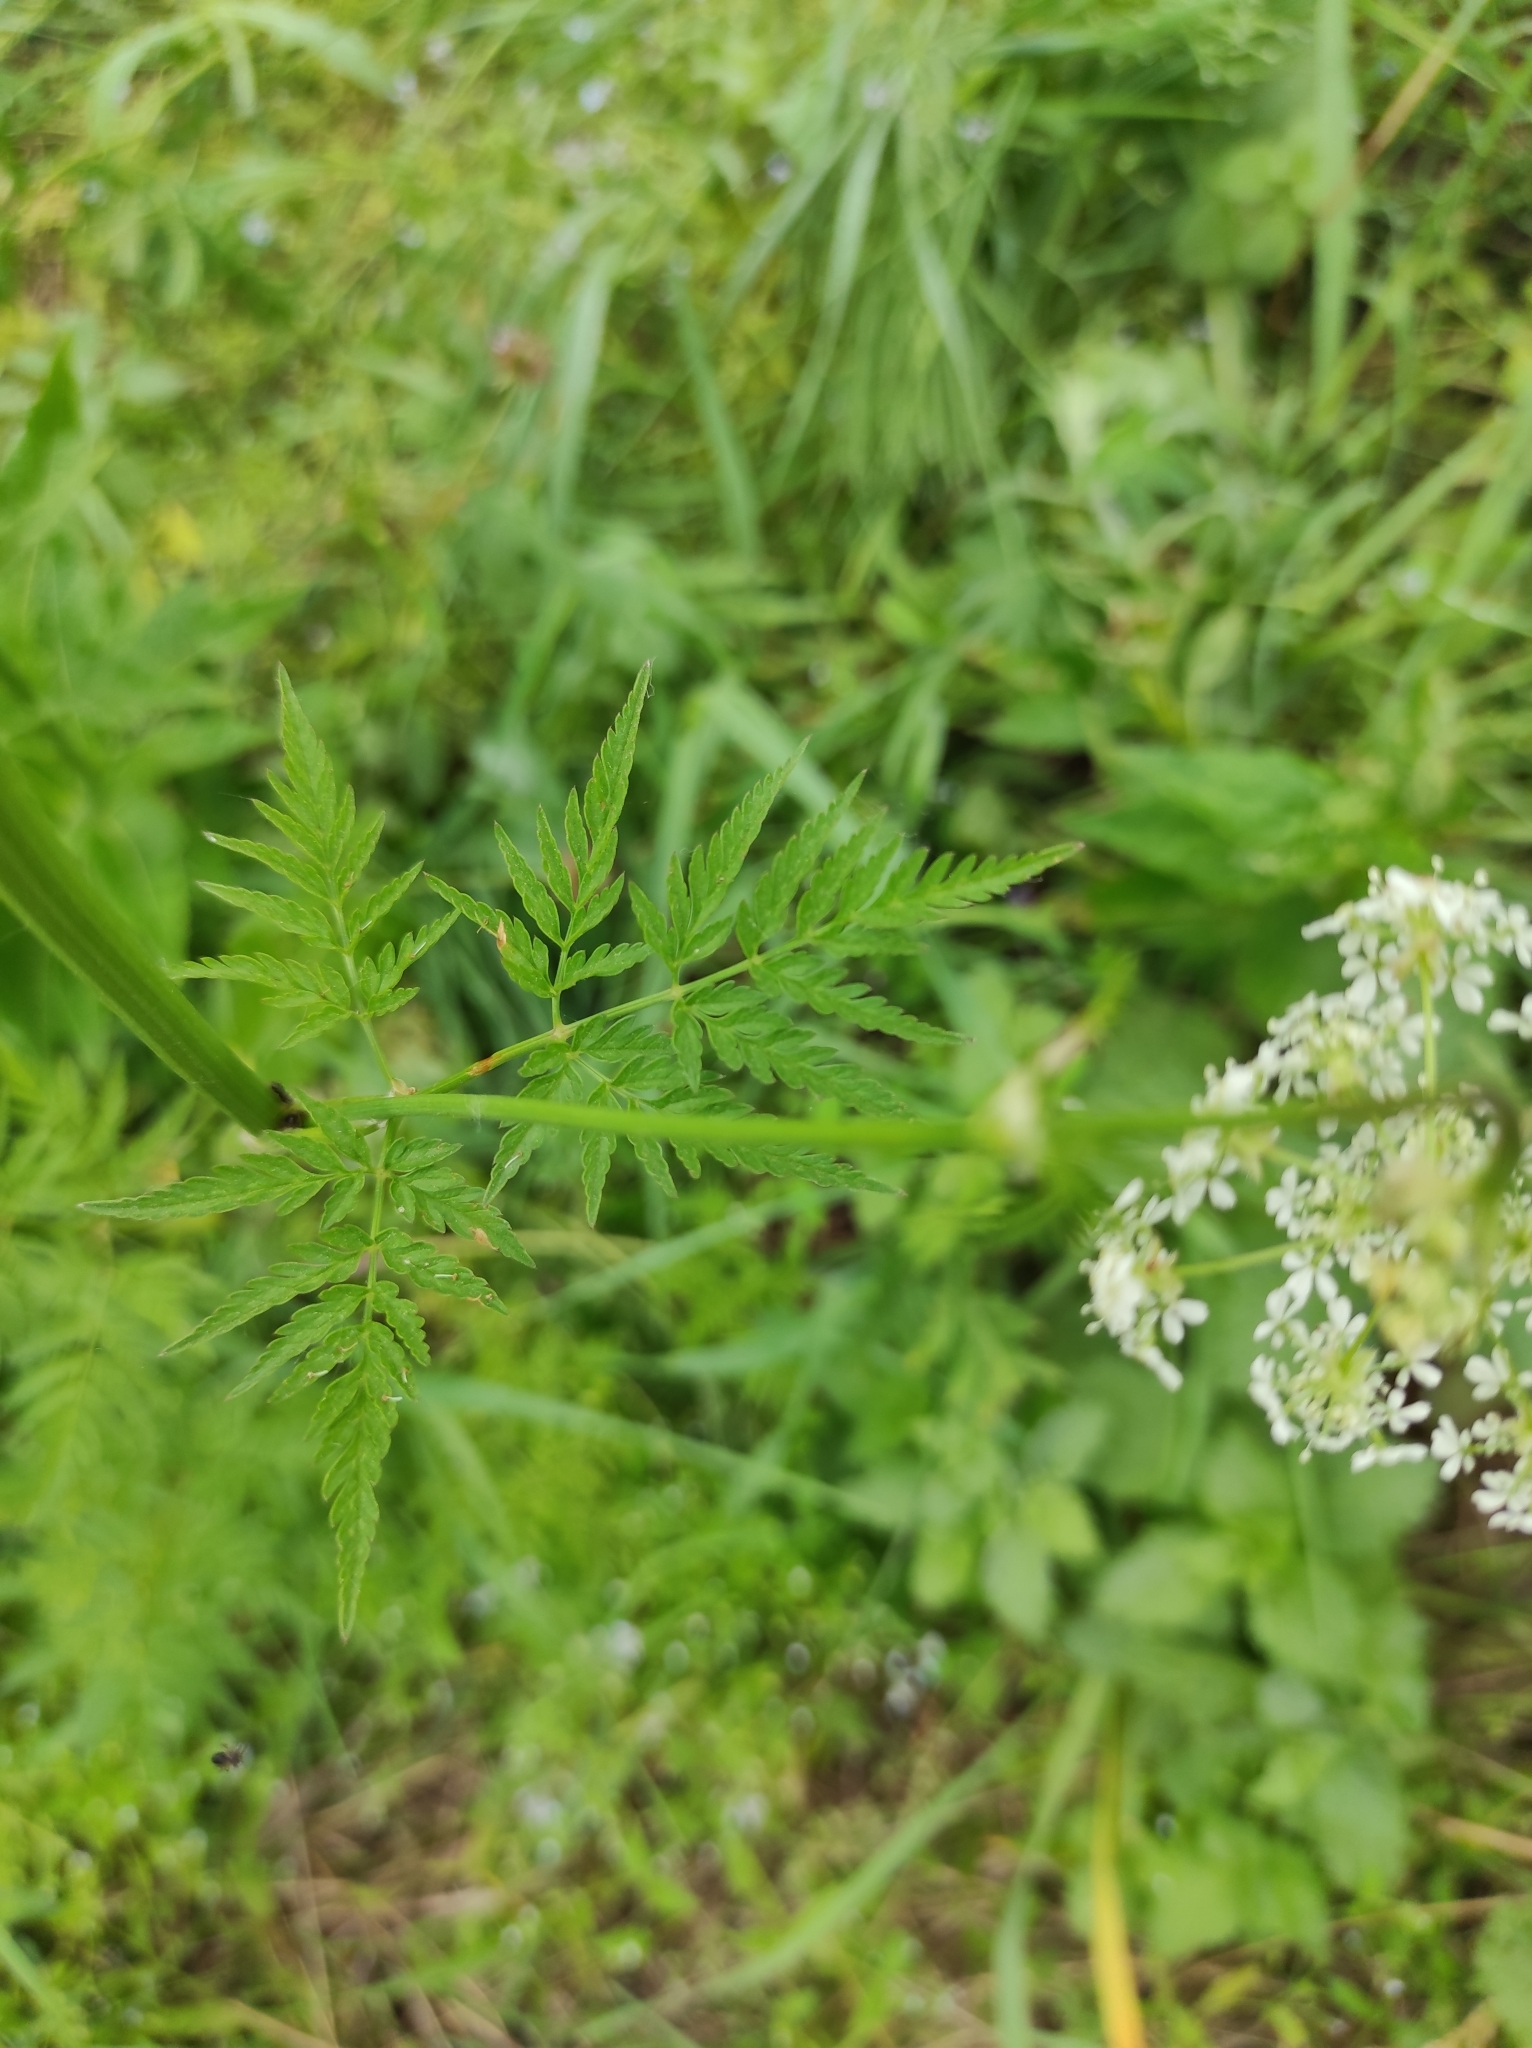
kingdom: Plantae
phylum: Tracheophyta
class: Magnoliopsida
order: Apiales
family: Apiaceae
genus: Anthriscus
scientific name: Anthriscus sylvestris
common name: Cow parsley
